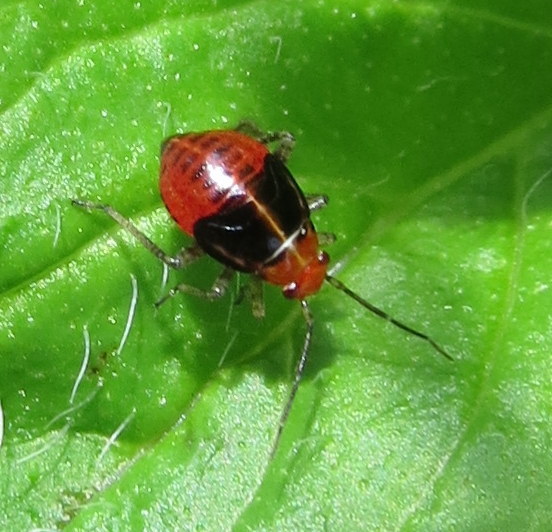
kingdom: Animalia
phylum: Arthropoda
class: Insecta
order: Hemiptera
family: Miridae
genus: Poecilocapsus
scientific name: Poecilocapsus lineatus
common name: Four-lined plant bug
